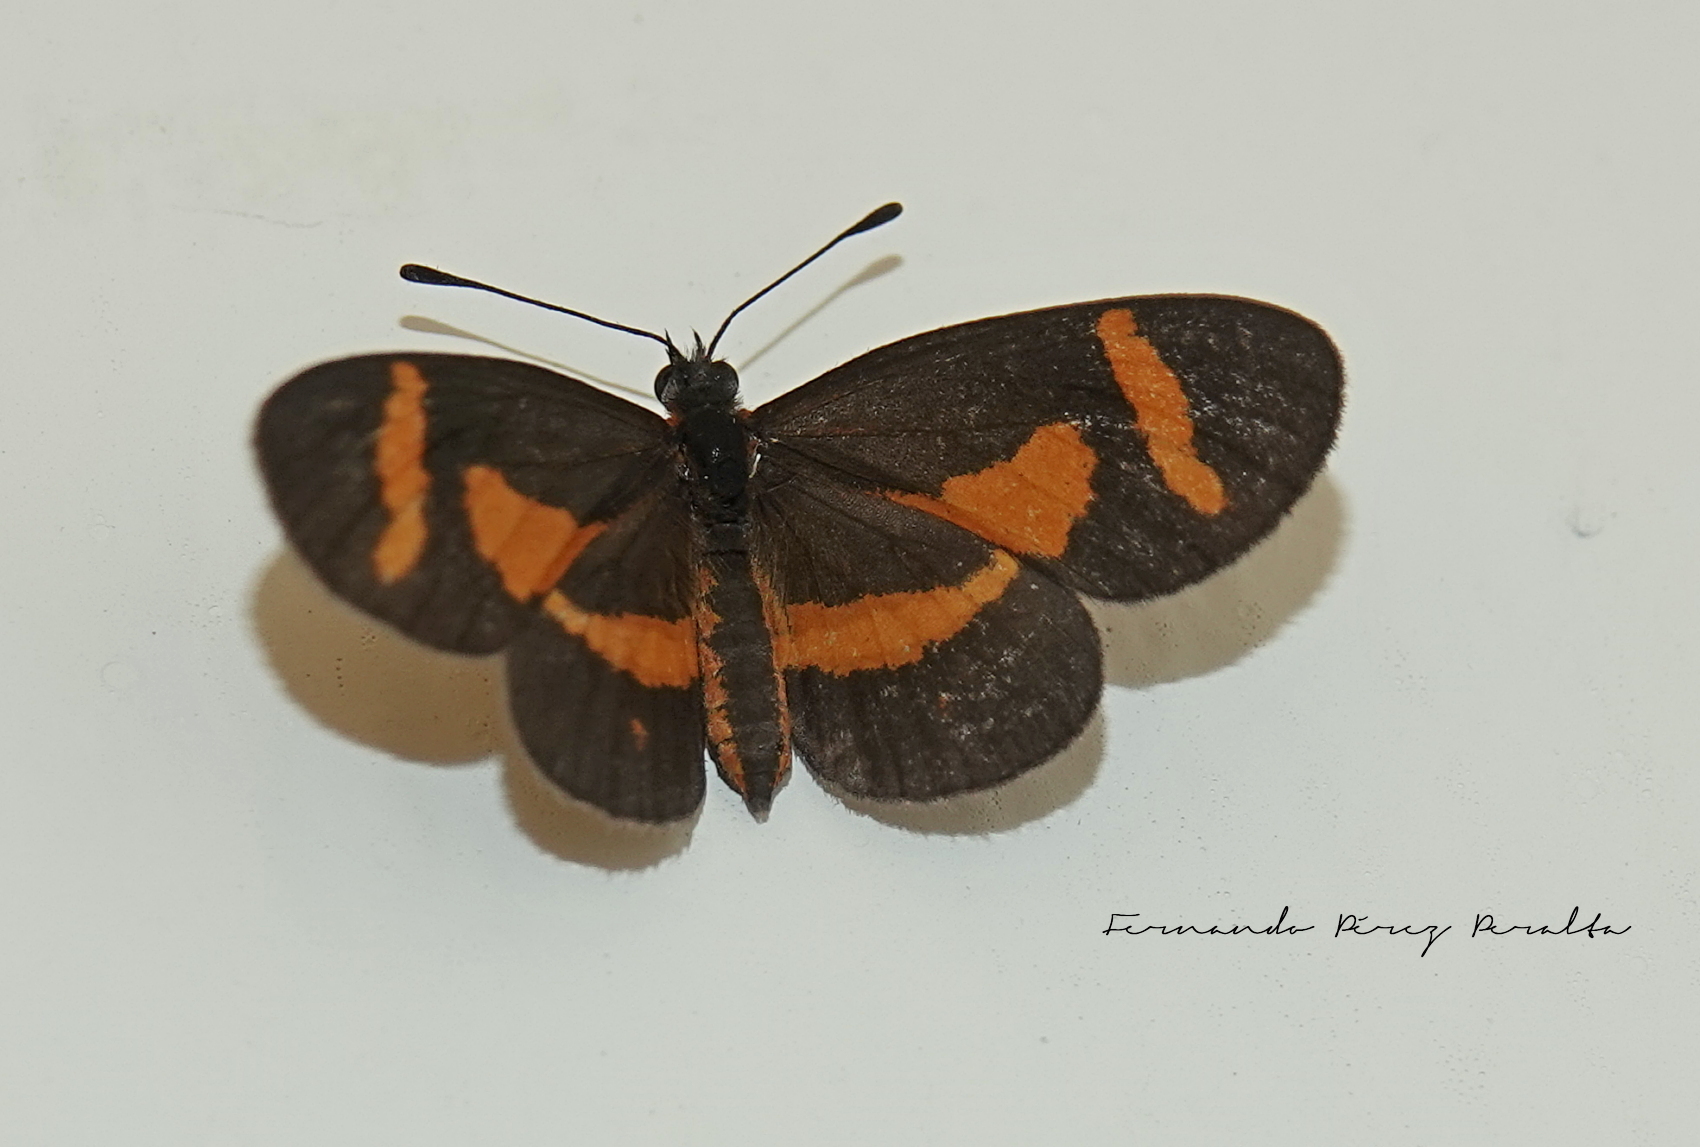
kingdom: Animalia
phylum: Arthropoda
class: Insecta
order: Lepidoptera
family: Nymphalidae
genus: Microtia
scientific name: Microtia elva
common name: Elf
